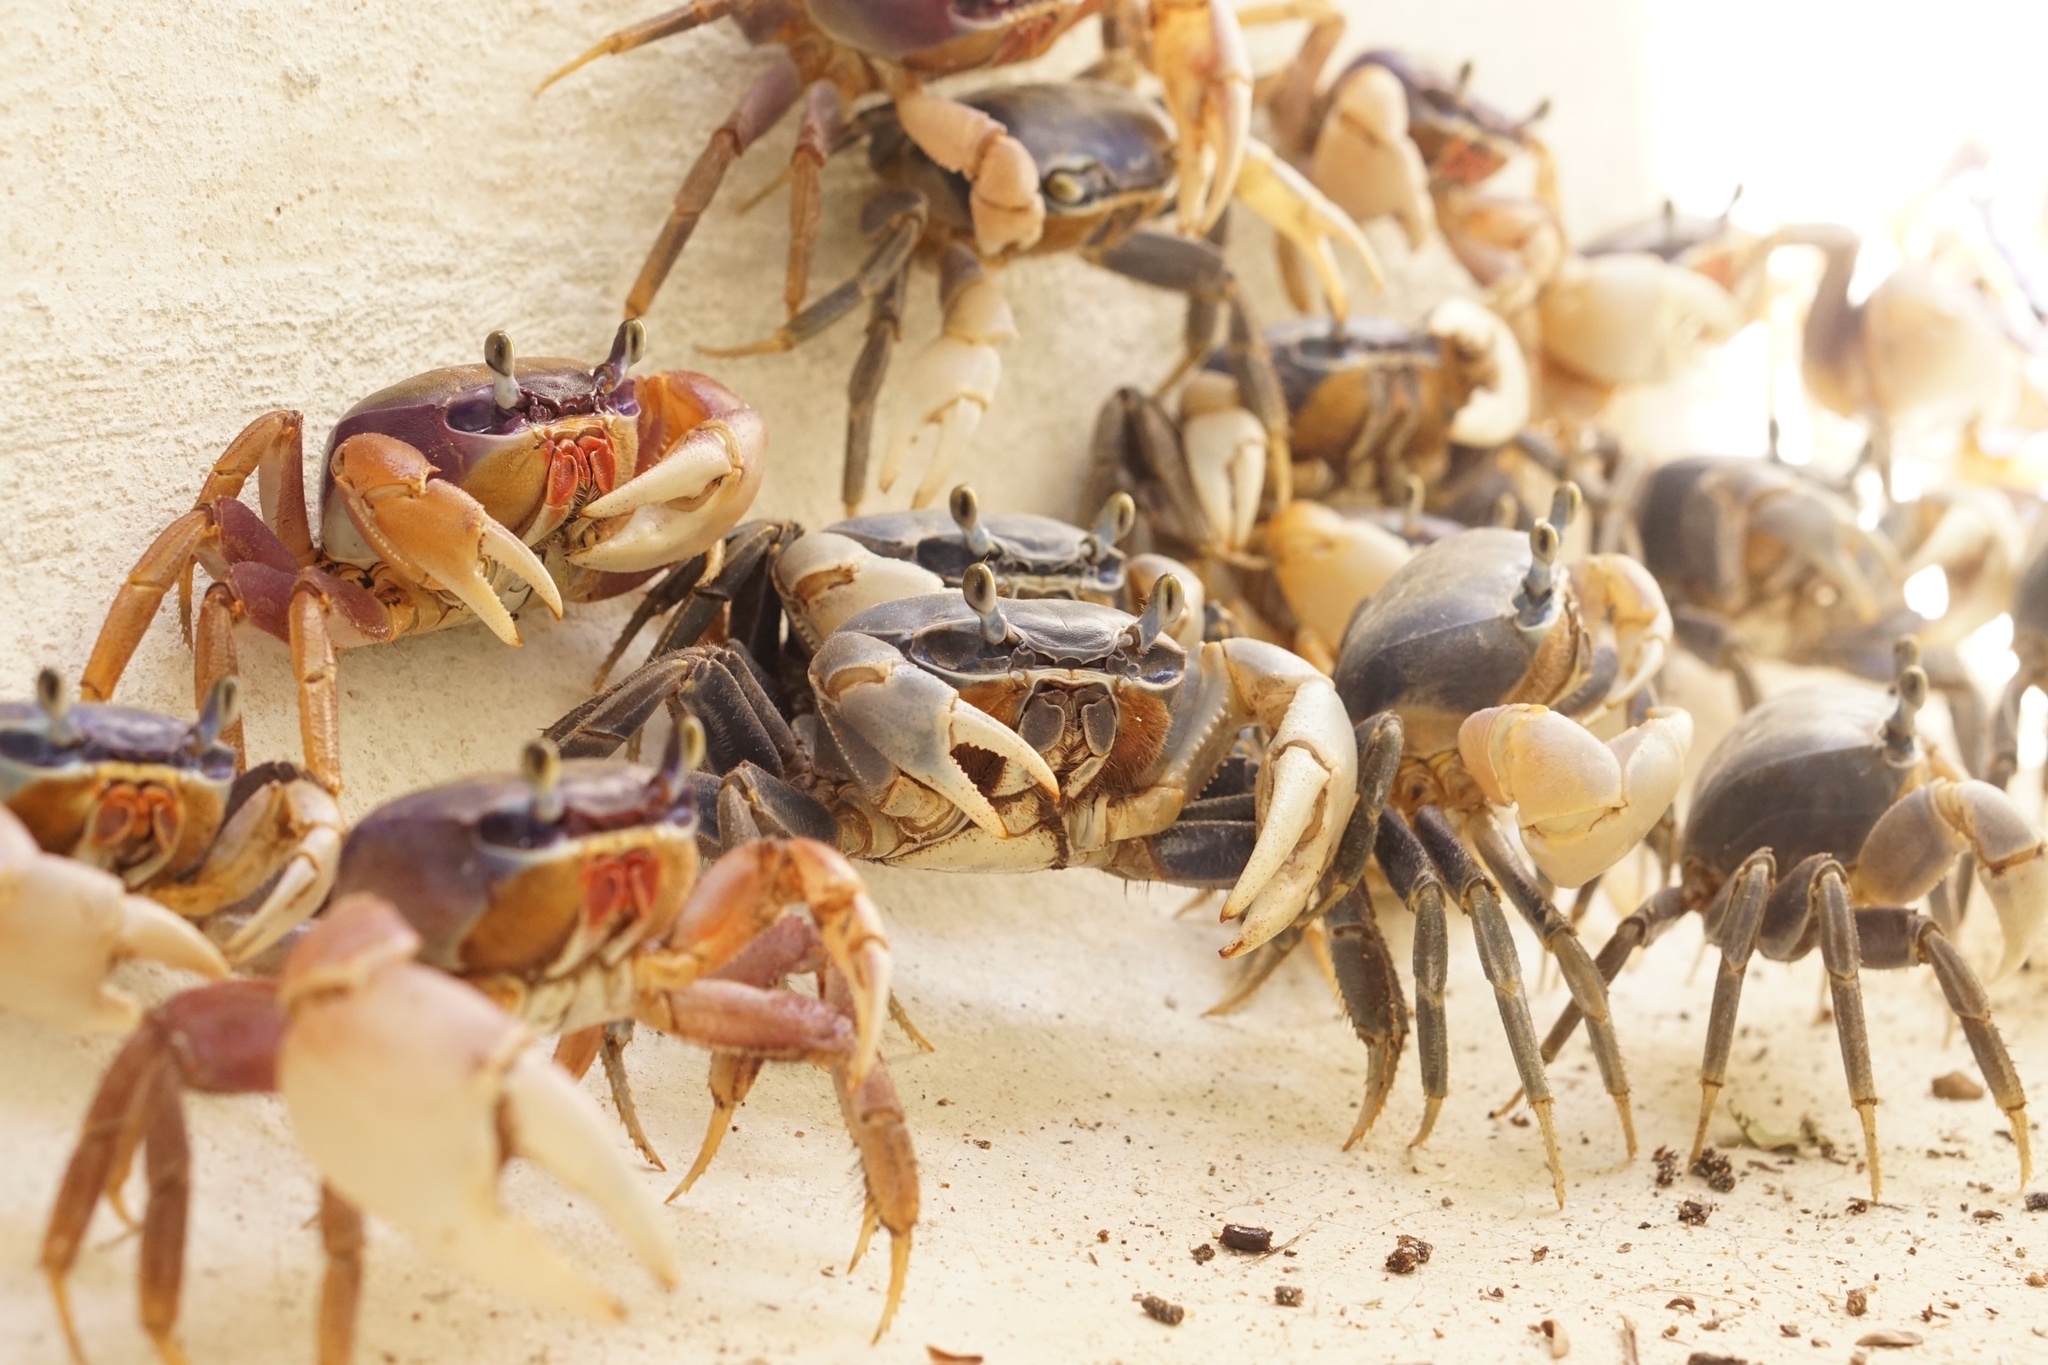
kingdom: Animalia
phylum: Arthropoda
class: Malacostraca
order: Decapoda
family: Gecarcinidae
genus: Cardisoma
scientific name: Cardisoma guanhumi
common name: Great land crab
